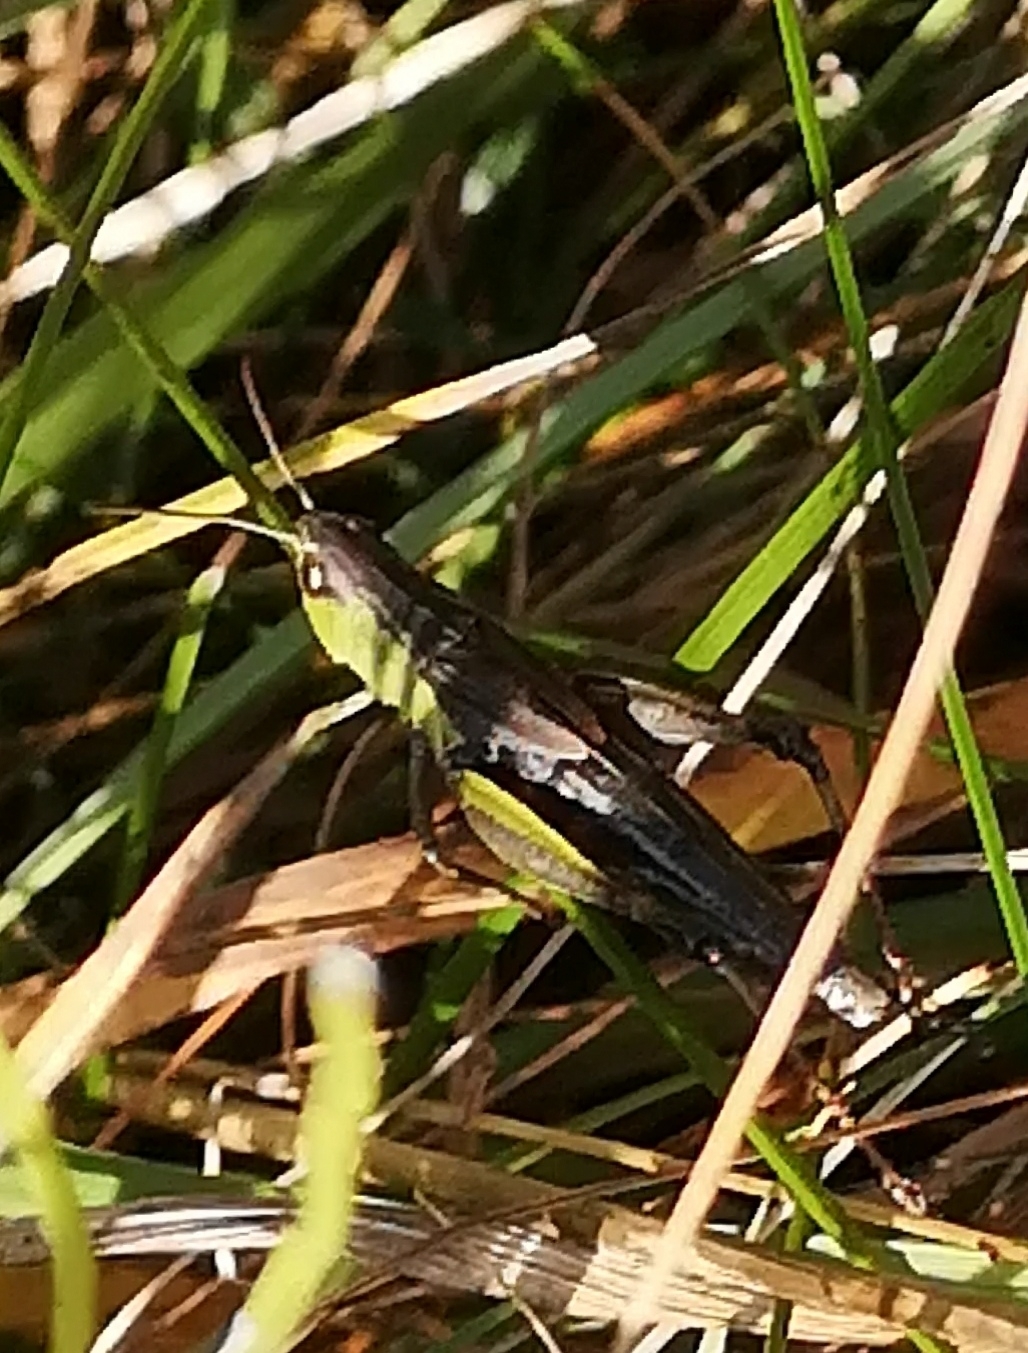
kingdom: Animalia
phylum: Arthropoda
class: Insecta
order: Orthoptera
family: Acrididae
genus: Pseudochorthippus
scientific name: Pseudochorthippus parallelus
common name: Meadow grasshopper
